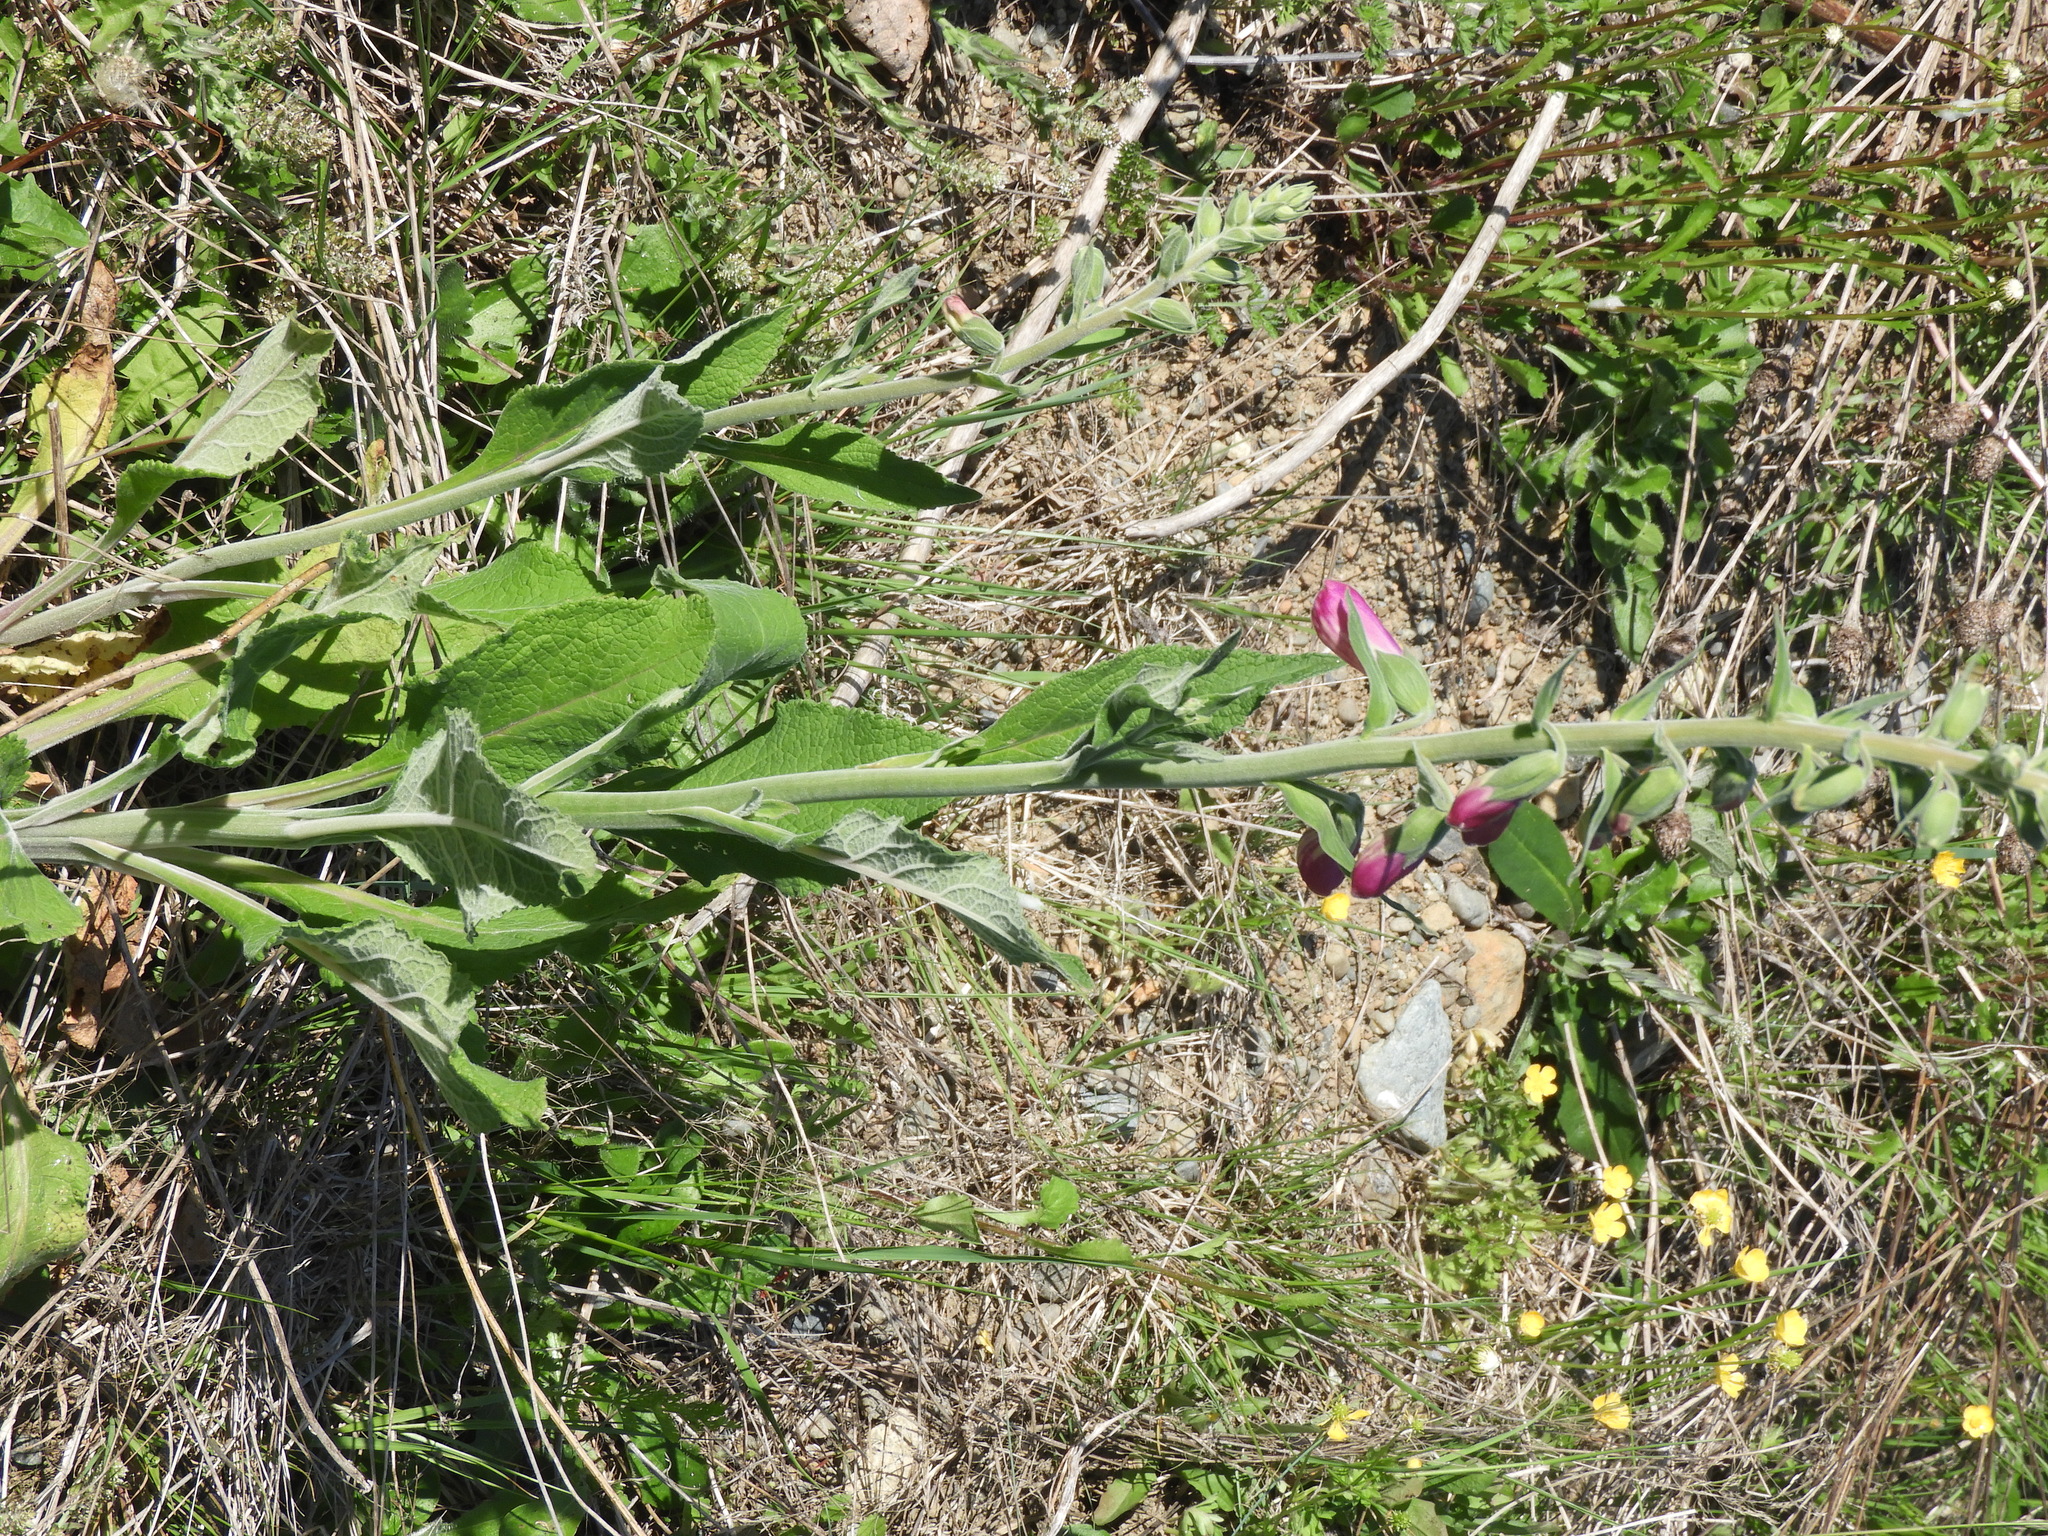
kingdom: Plantae
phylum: Tracheophyta
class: Magnoliopsida
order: Lamiales
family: Plantaginaceae
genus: Digitalis
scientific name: Digitalis purpurea
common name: Foxglove
